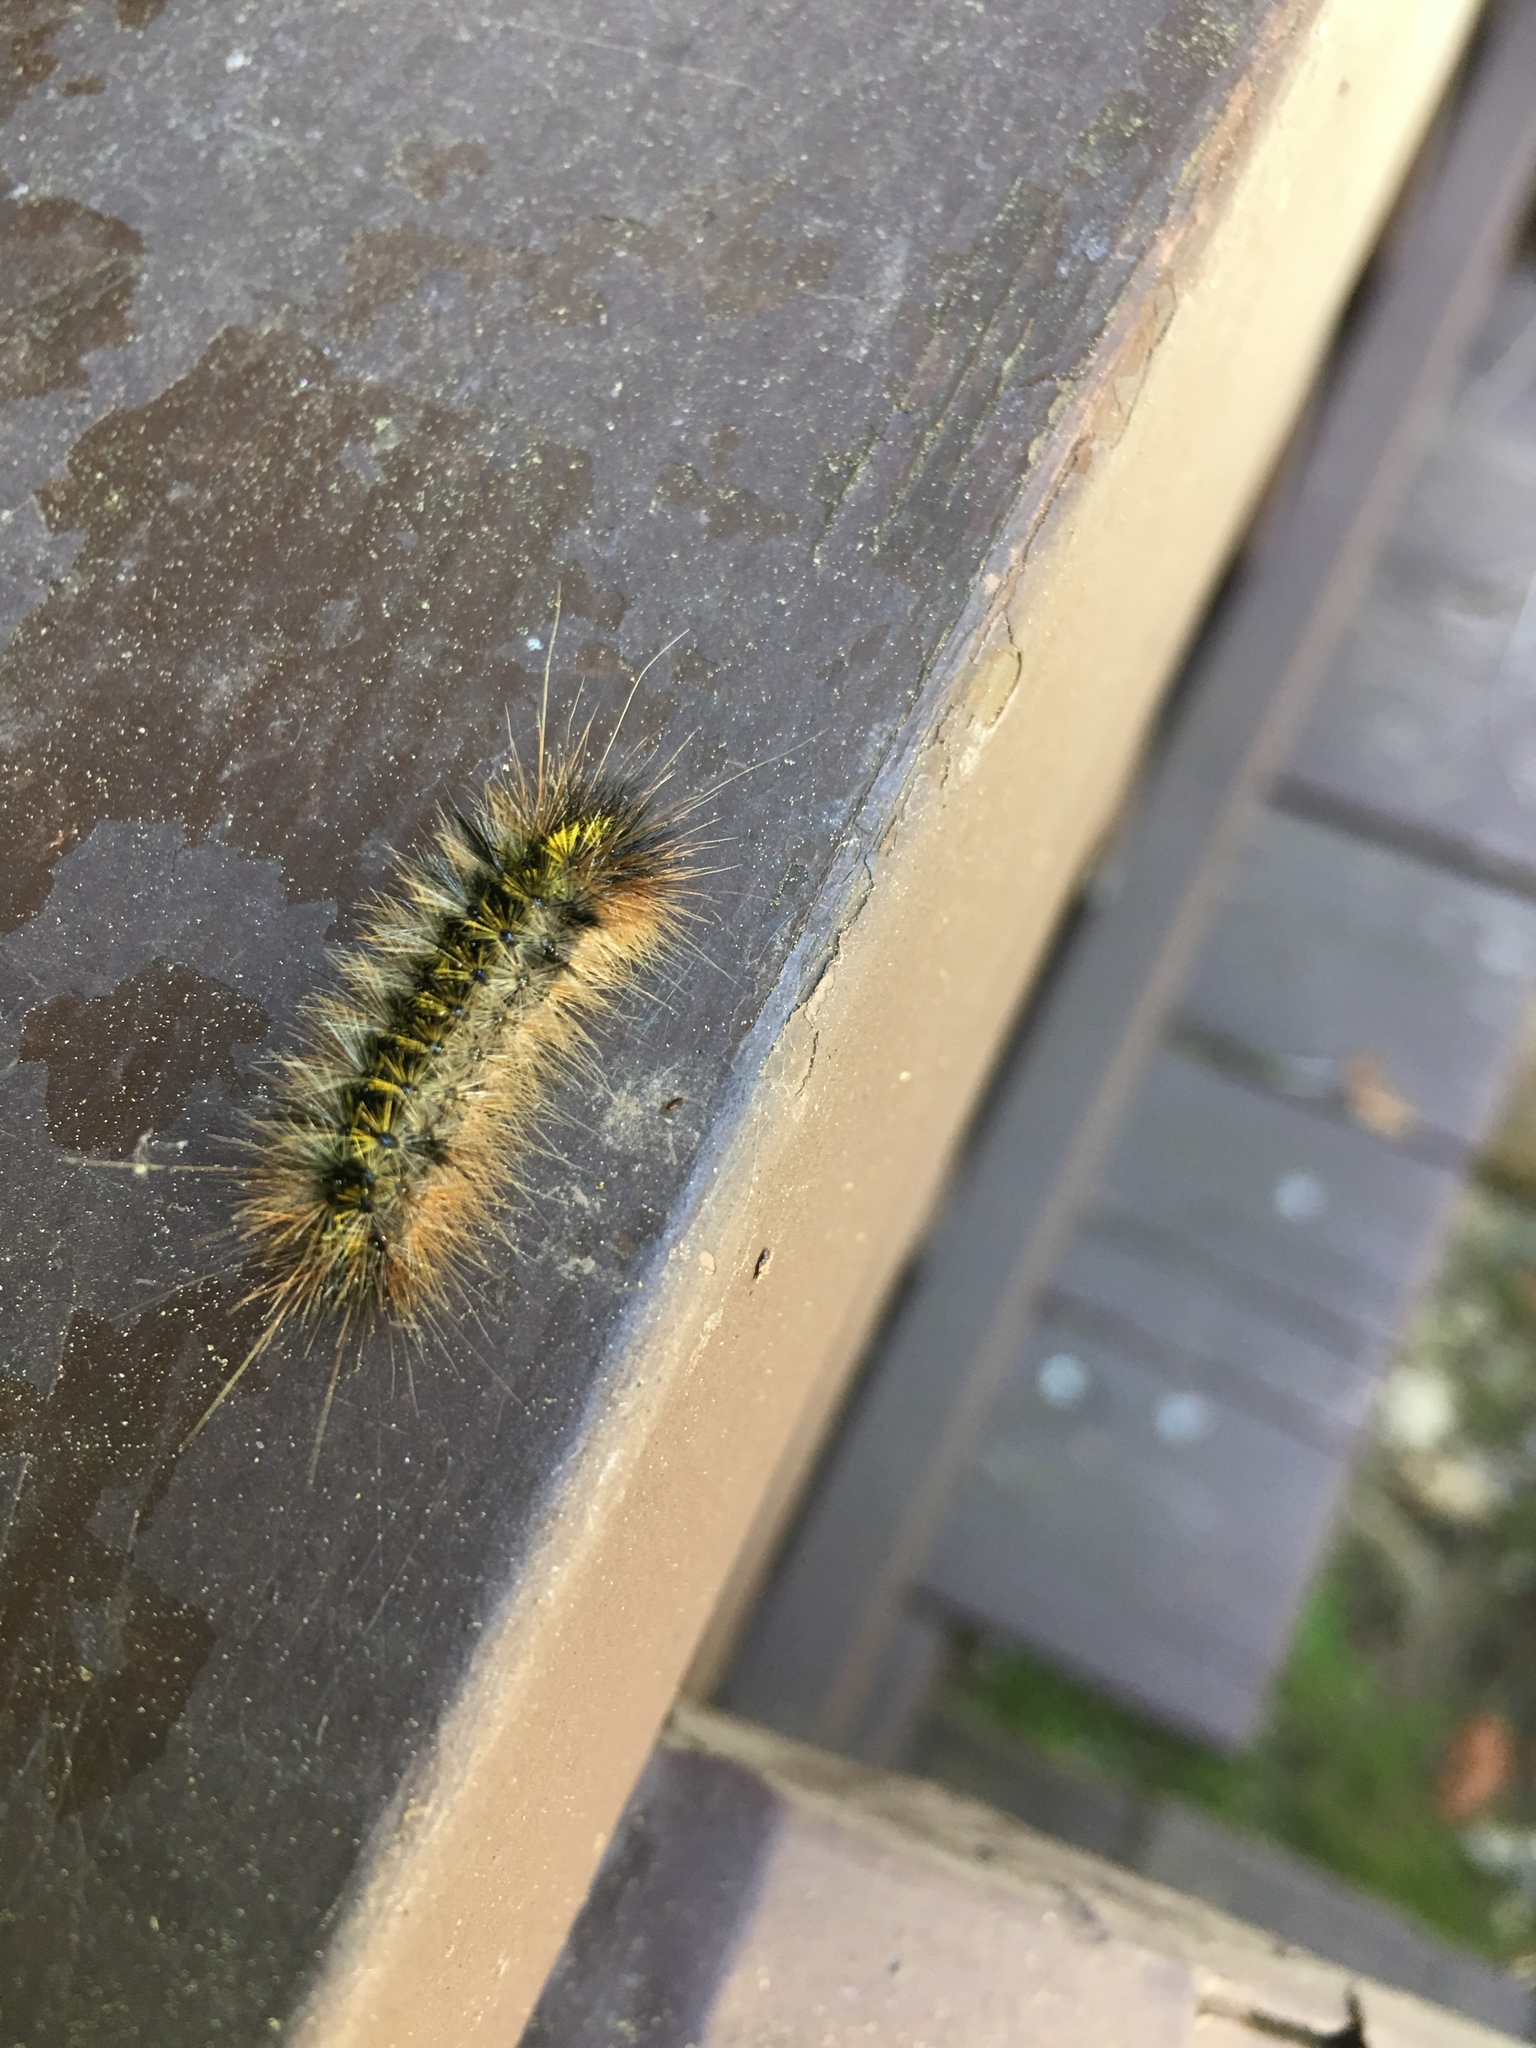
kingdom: Animalia
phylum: Arthropoda
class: Insecta
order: Lepidoptera
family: Erebidae
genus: Lophocampa
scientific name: Lophocampa argentata
